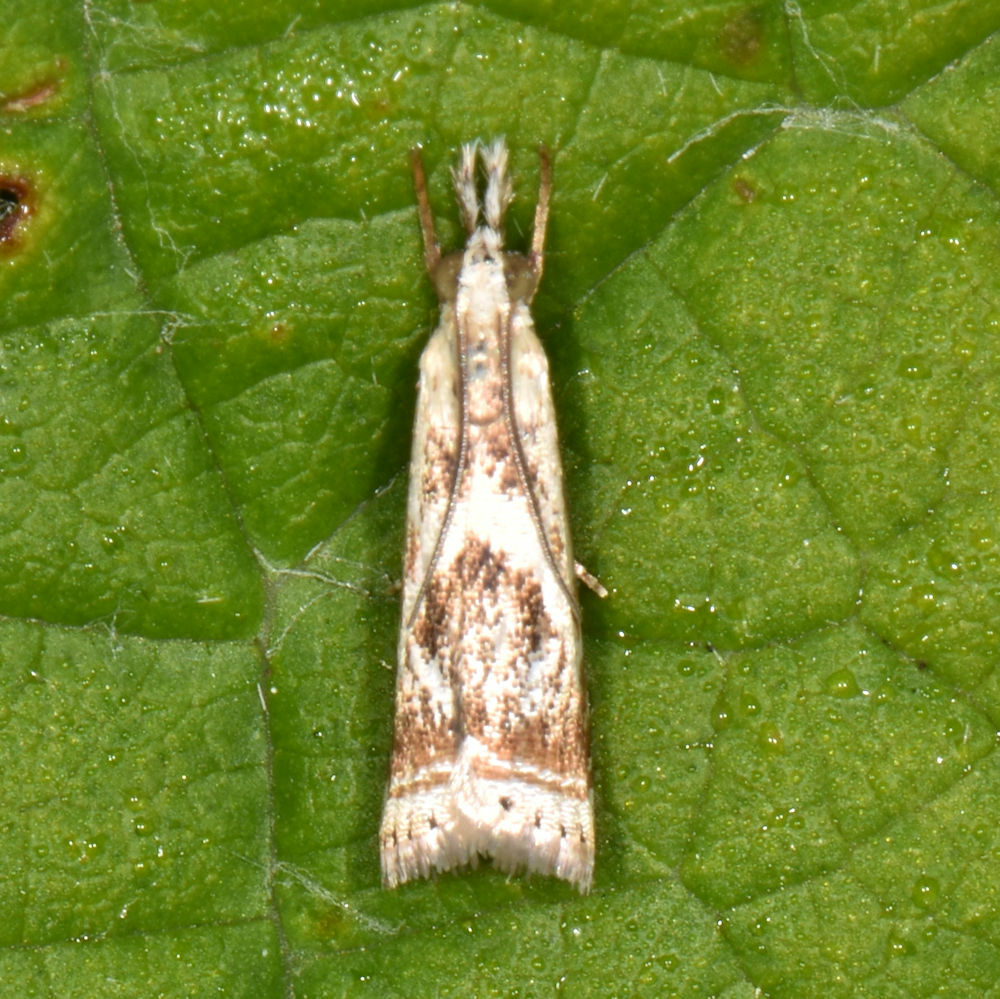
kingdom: Animalia
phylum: Arthropoda
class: Insecta
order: Lepidoptera
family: Crambidae
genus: Microcrambus
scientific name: Microcrambus elegans
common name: Elegant grass-veneer
